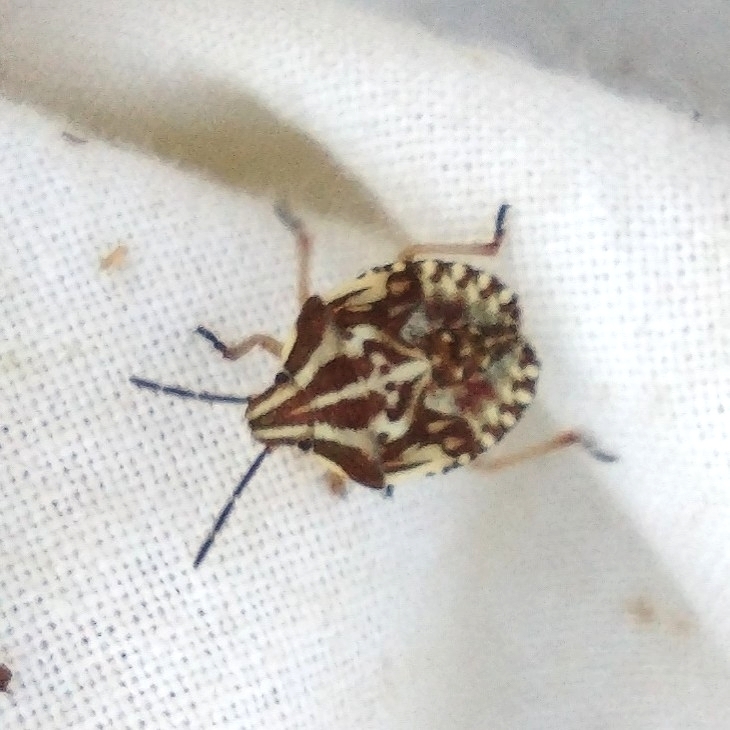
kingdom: Animalia
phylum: Arthropoda
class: Insecta
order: Hemiptera
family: Pentatomidae
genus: Carpocoris
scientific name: Carpocoris purpureipennis
